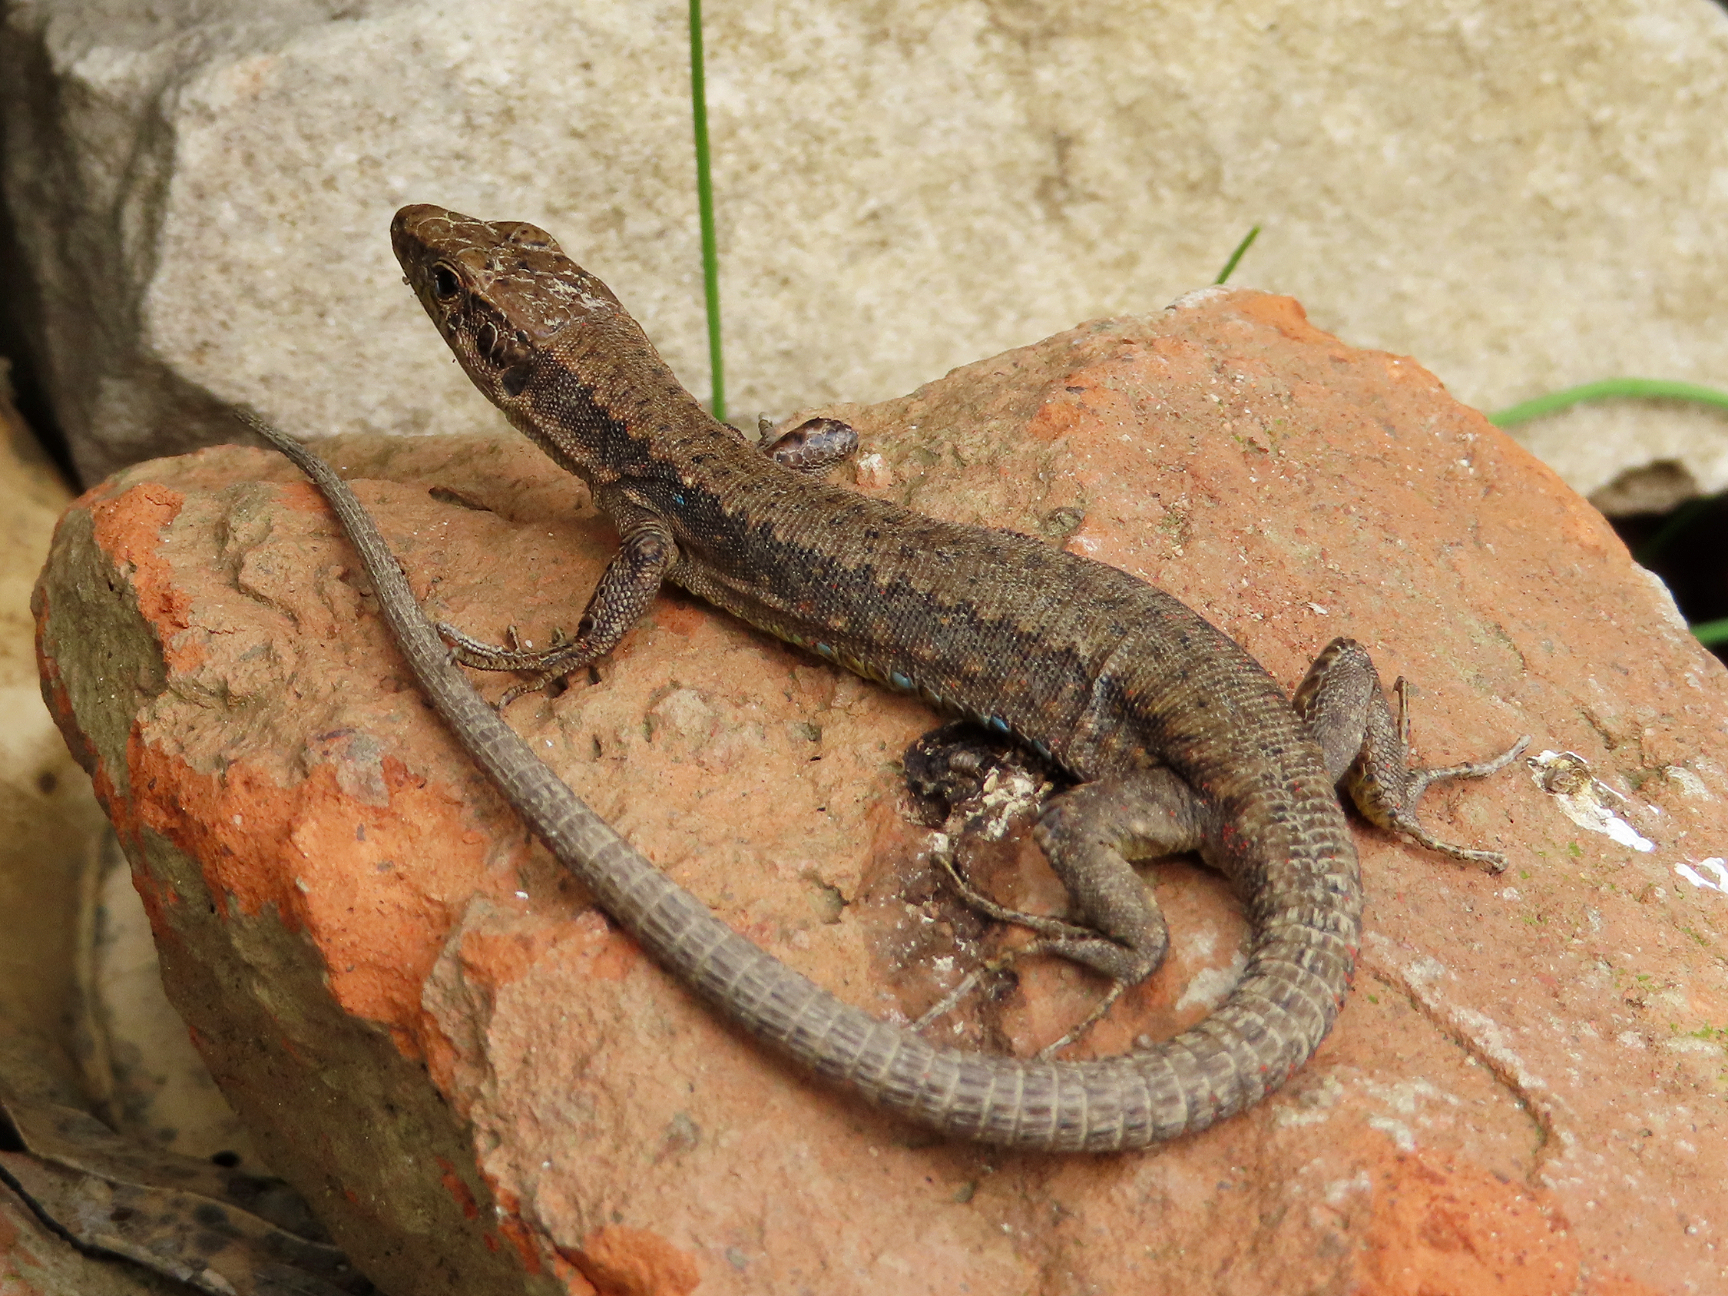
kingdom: Animalia
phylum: Chordata
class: Squamata
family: Lacertidae
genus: Darevskia
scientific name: Darevskia mixta
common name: Ajarian lizard
